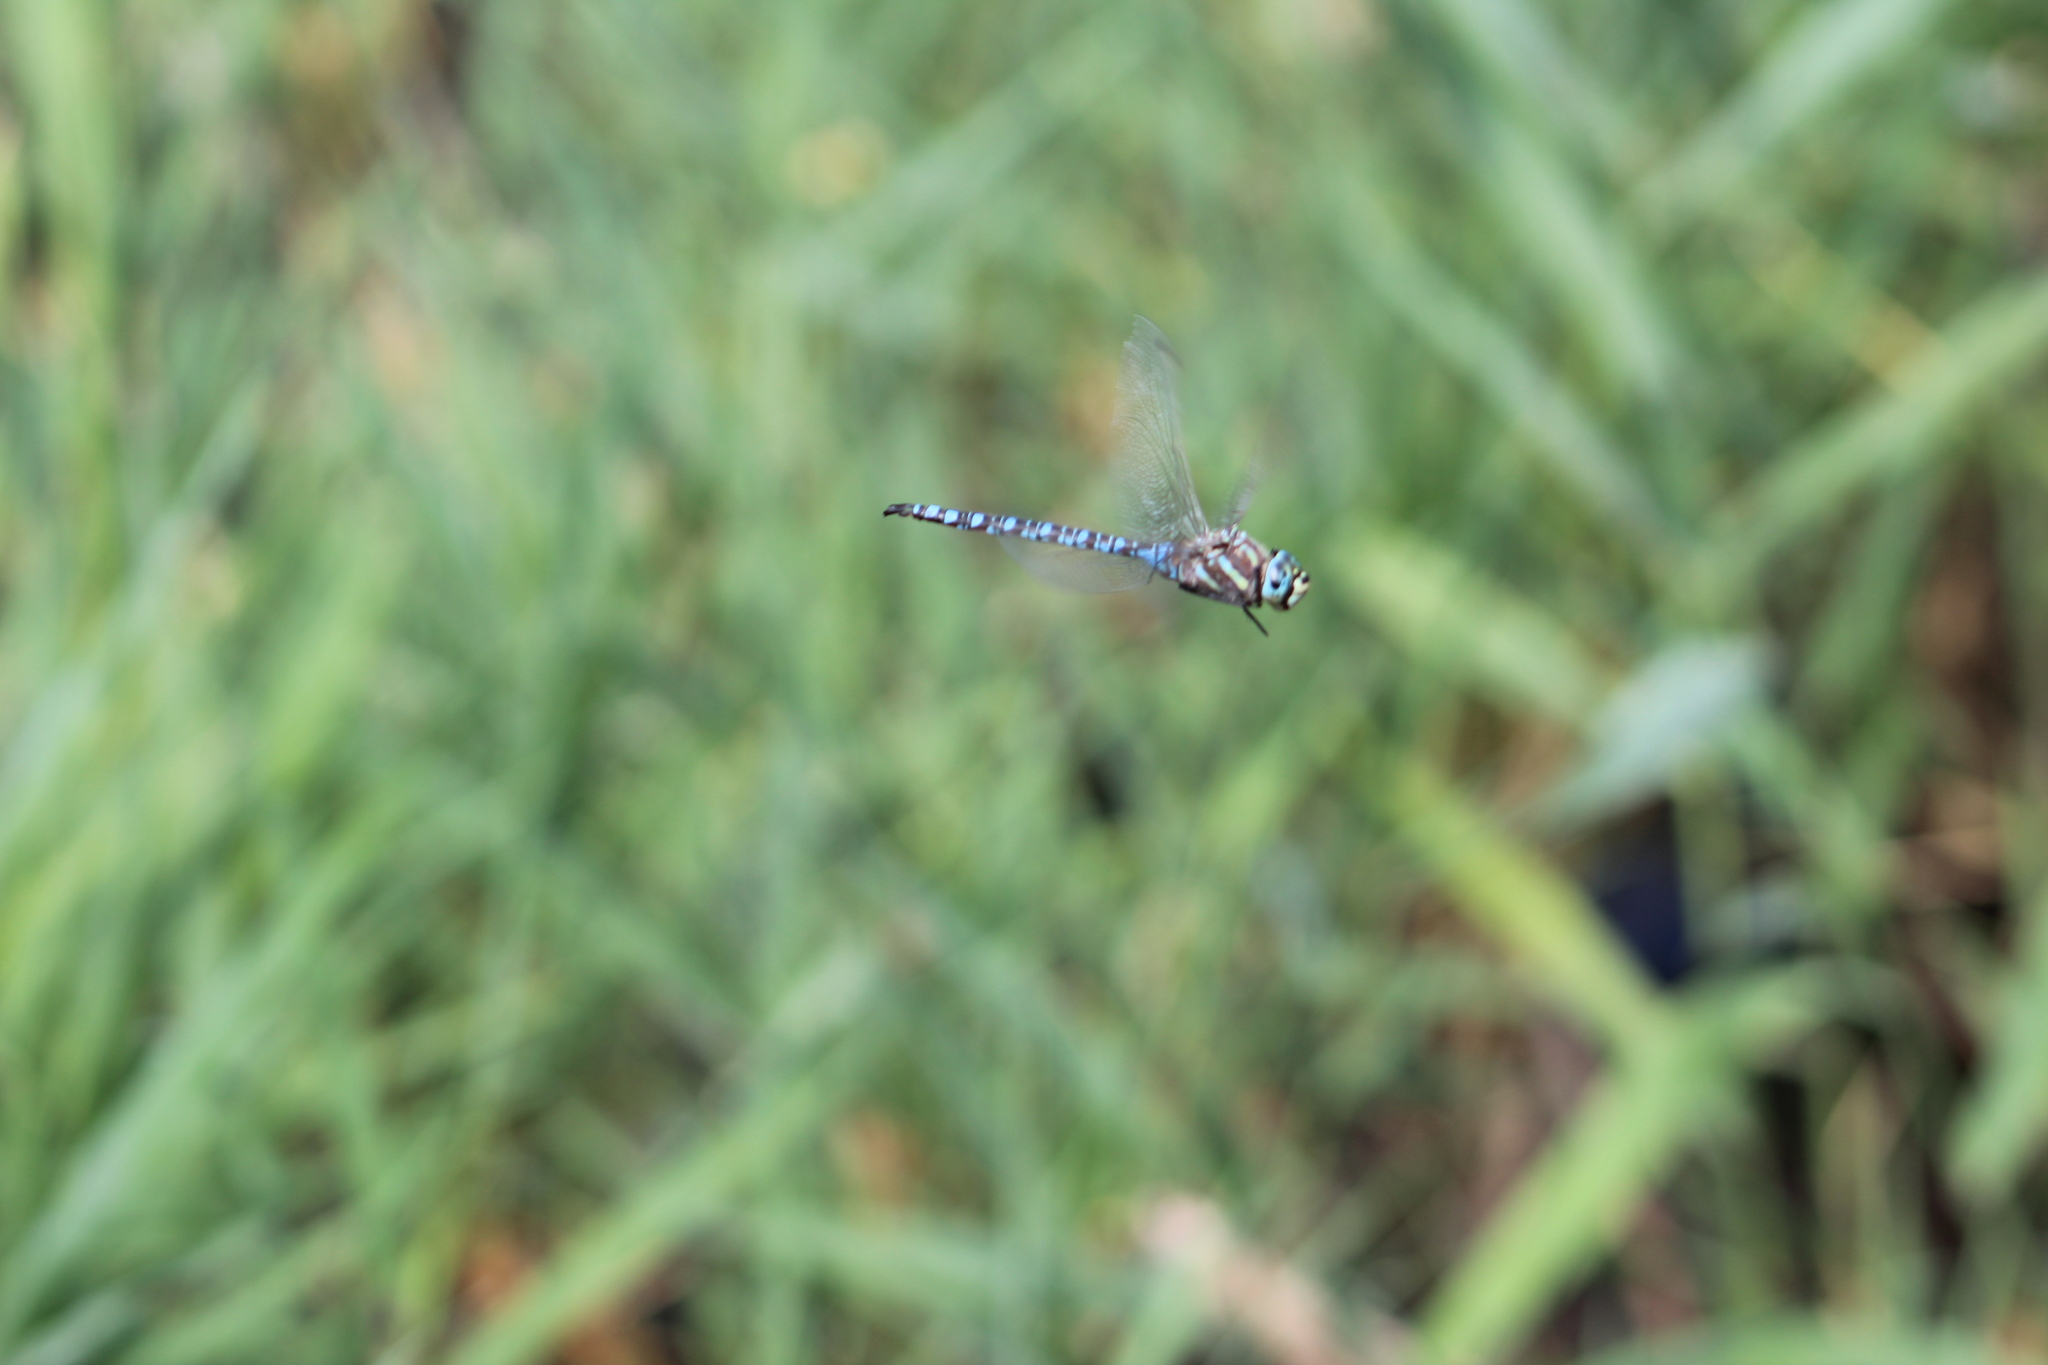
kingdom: Animalia
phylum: Arthropoda
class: Insecta
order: Odonata
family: Aeshnidae
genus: Aeshna
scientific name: Aeshna palmata
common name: Paddle-tailed darner
